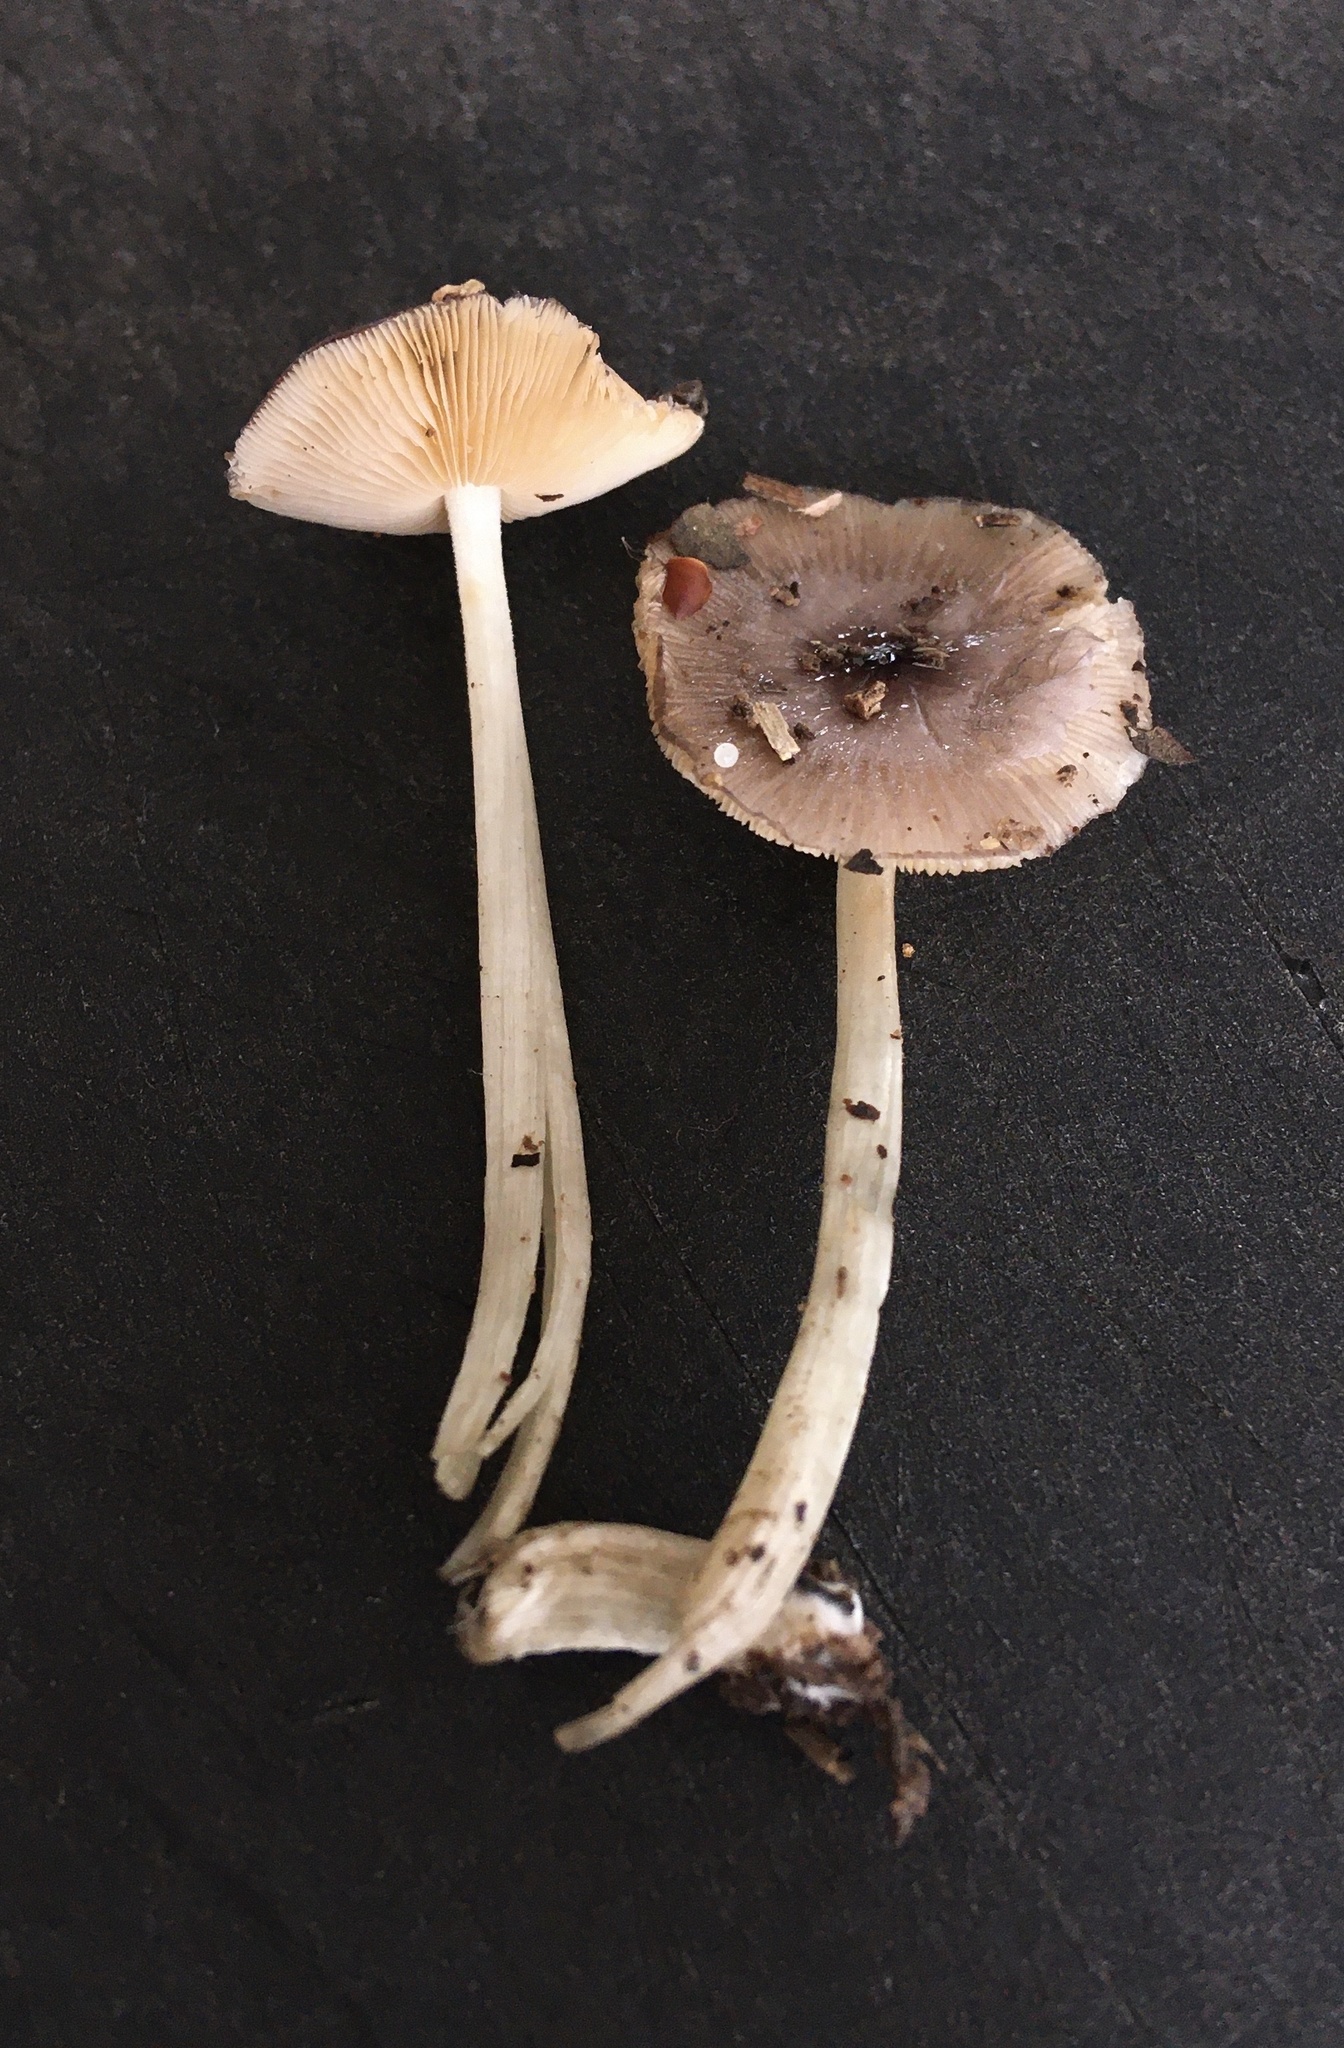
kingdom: Fungi
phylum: Basidiomycota
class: Agaricomycetes
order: Agaricales
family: Bolbitiaceae
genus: Bolbitius
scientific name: Bolbitius reticulatus
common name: Netted fieldcap
